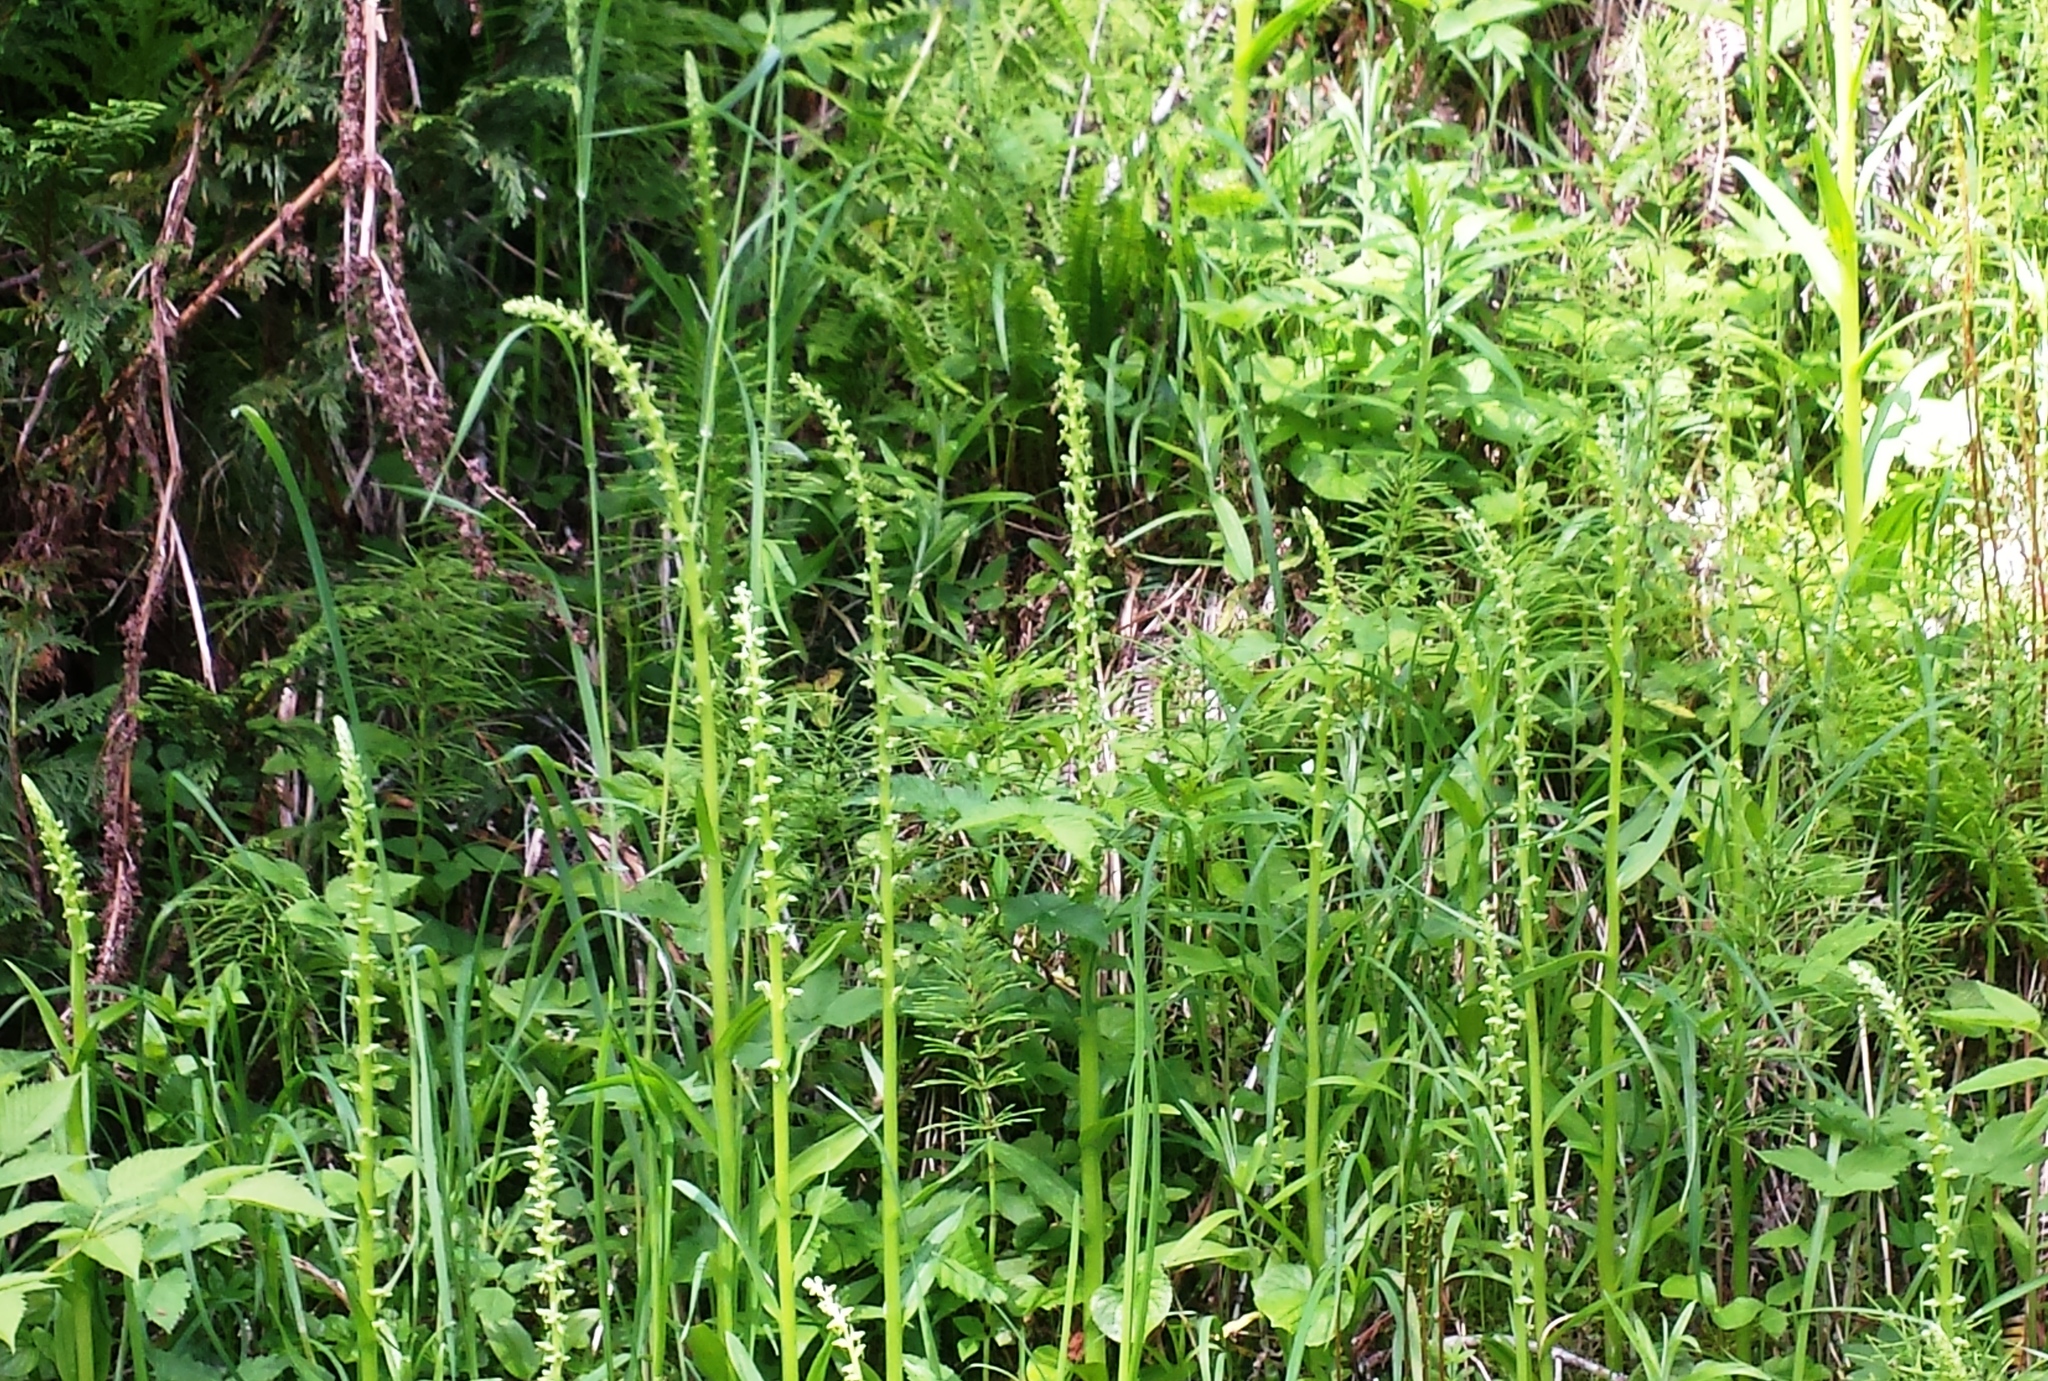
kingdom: Plantae
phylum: Tracheophyta
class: Liliopsida
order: Asparagales
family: Orchidaceae
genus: Platanthera
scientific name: Platanthera stricta
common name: Slender bog orchid
